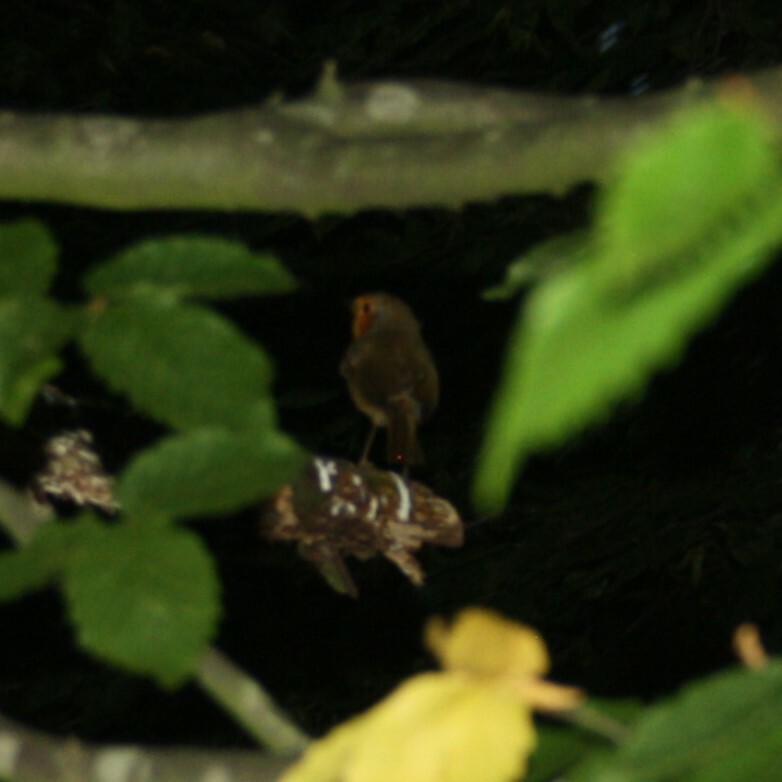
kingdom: Animalia
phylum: Chordata
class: Aves
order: Passeriformes
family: Muscicapidae
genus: Erithacus
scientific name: Erithacus rubecula
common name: European robin
